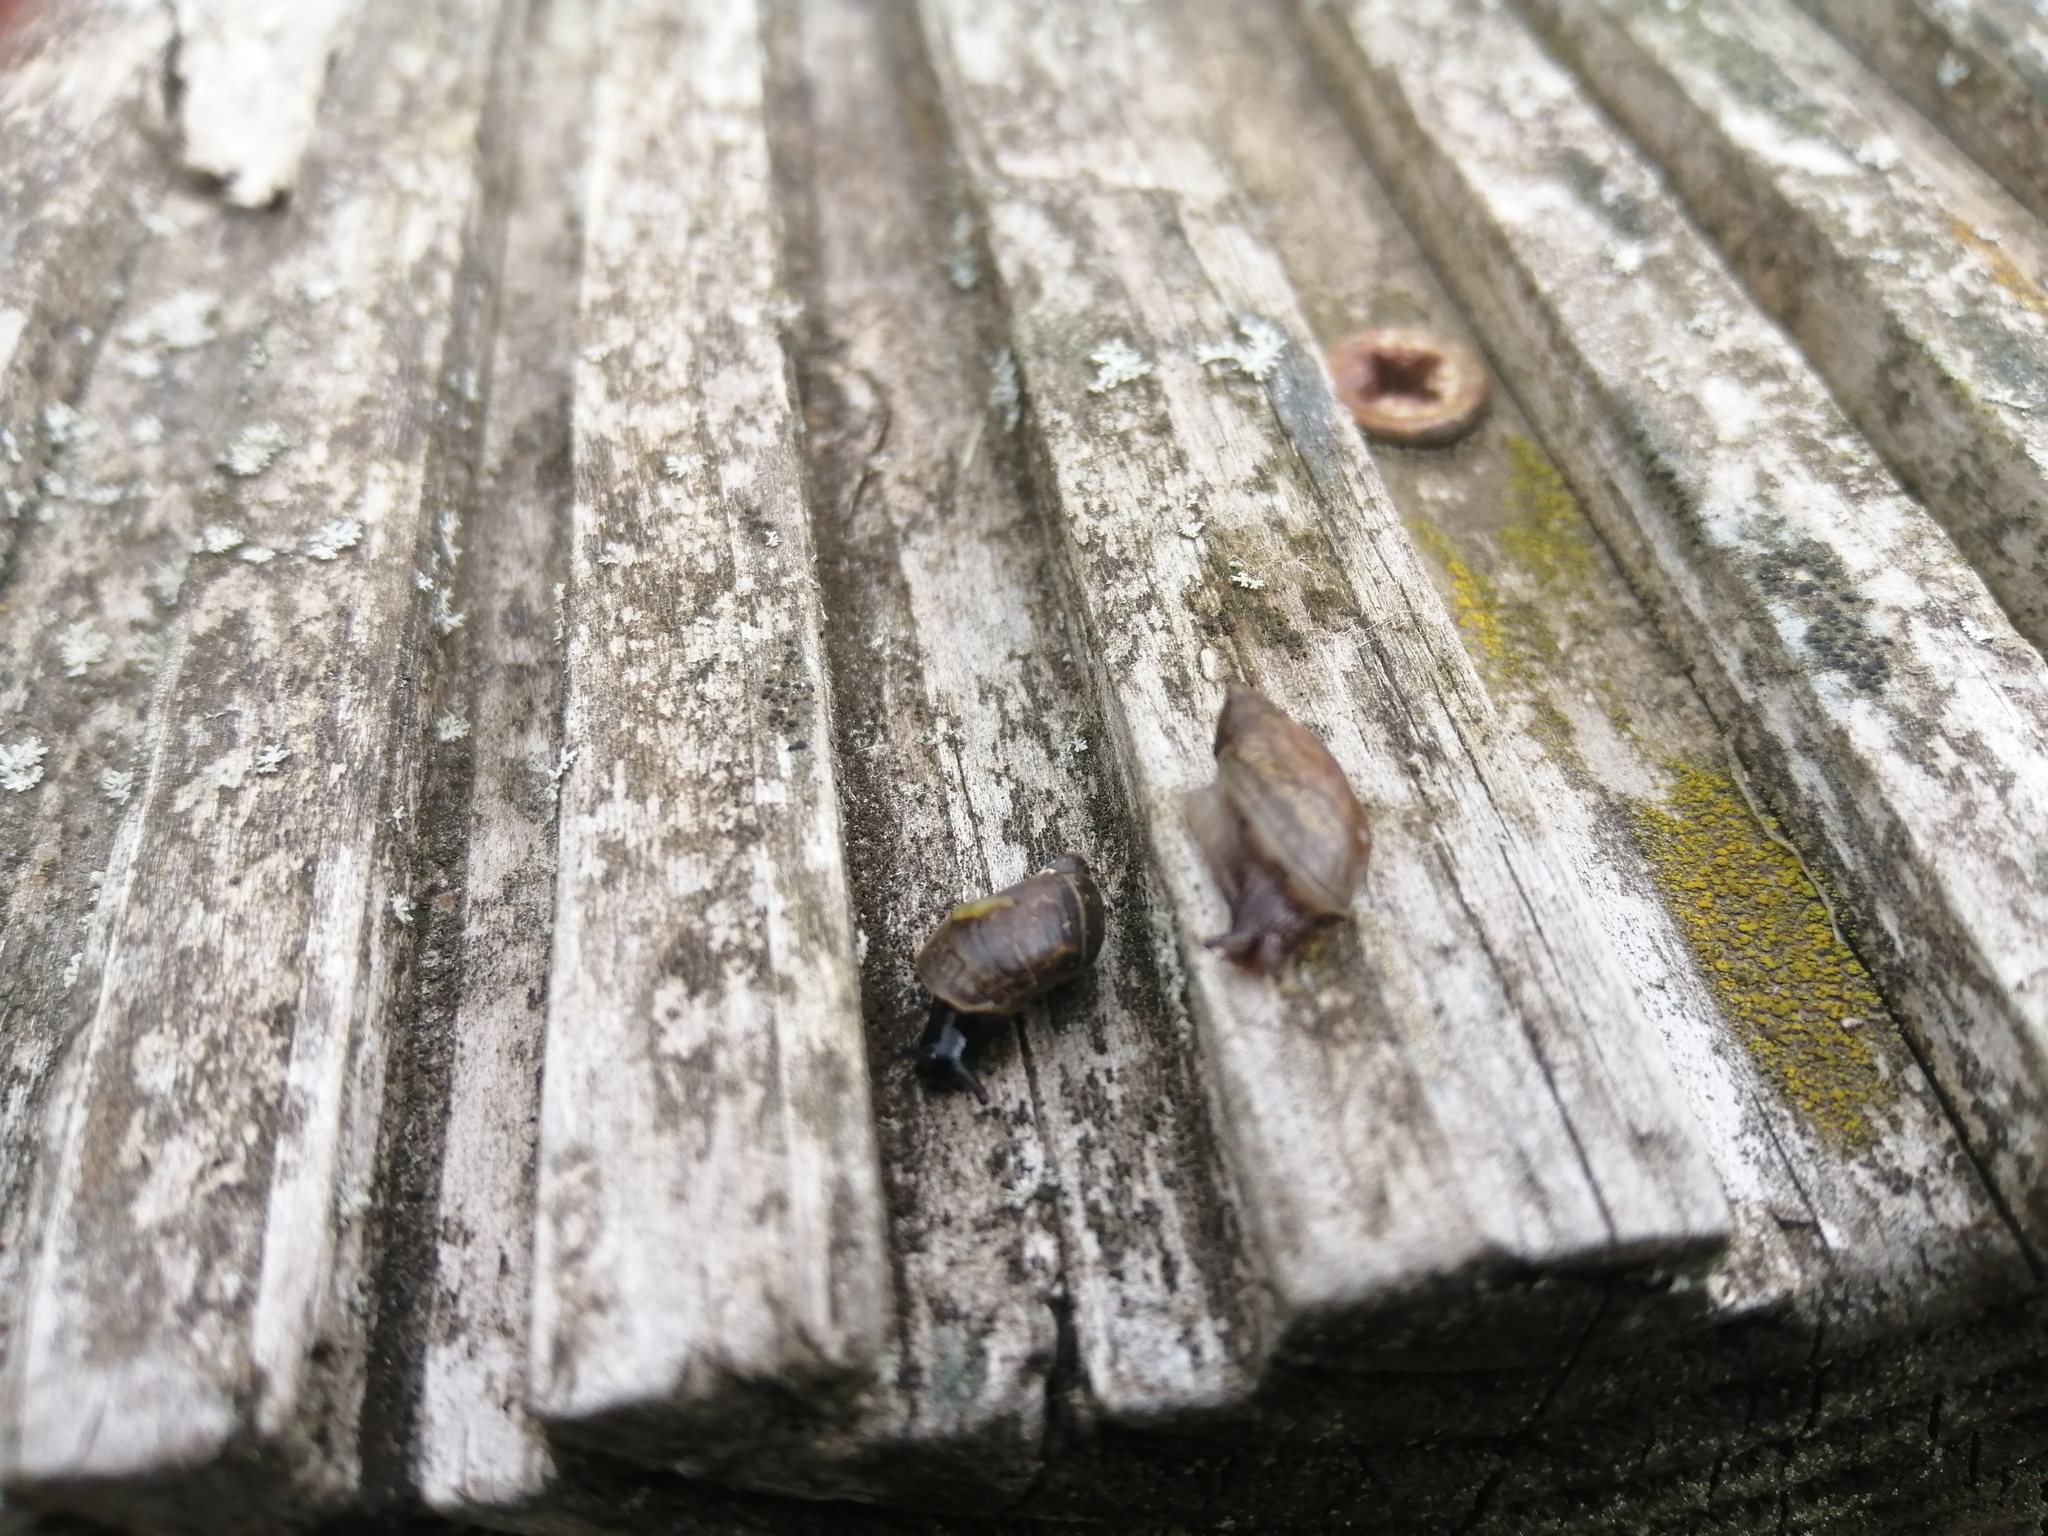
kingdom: Animalia
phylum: Mollusca
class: Gastropoda
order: Stylommatophora
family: Succineidae
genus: Oxyloma
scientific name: Oxyloma elegans
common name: Pfeiffer's amber snail
